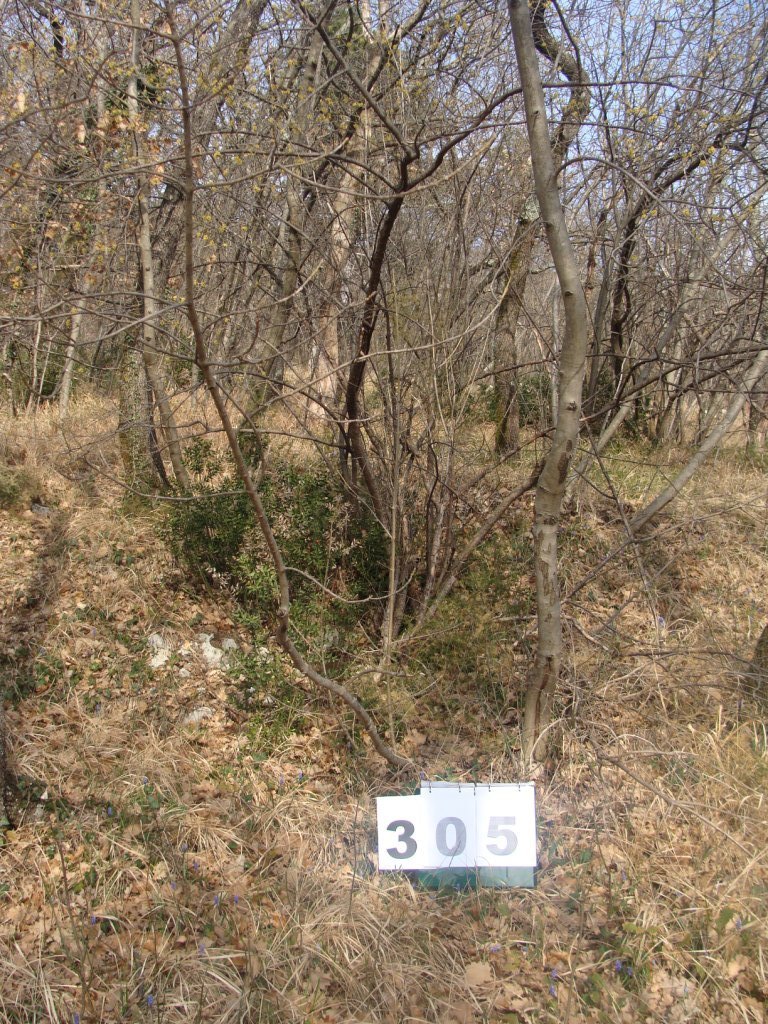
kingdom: Plantae
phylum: Tracheophyta
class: Magnoliopsida
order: Cornales
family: Cornaceae
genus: Cornus
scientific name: Cornus mas
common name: Cornelian-cherry
